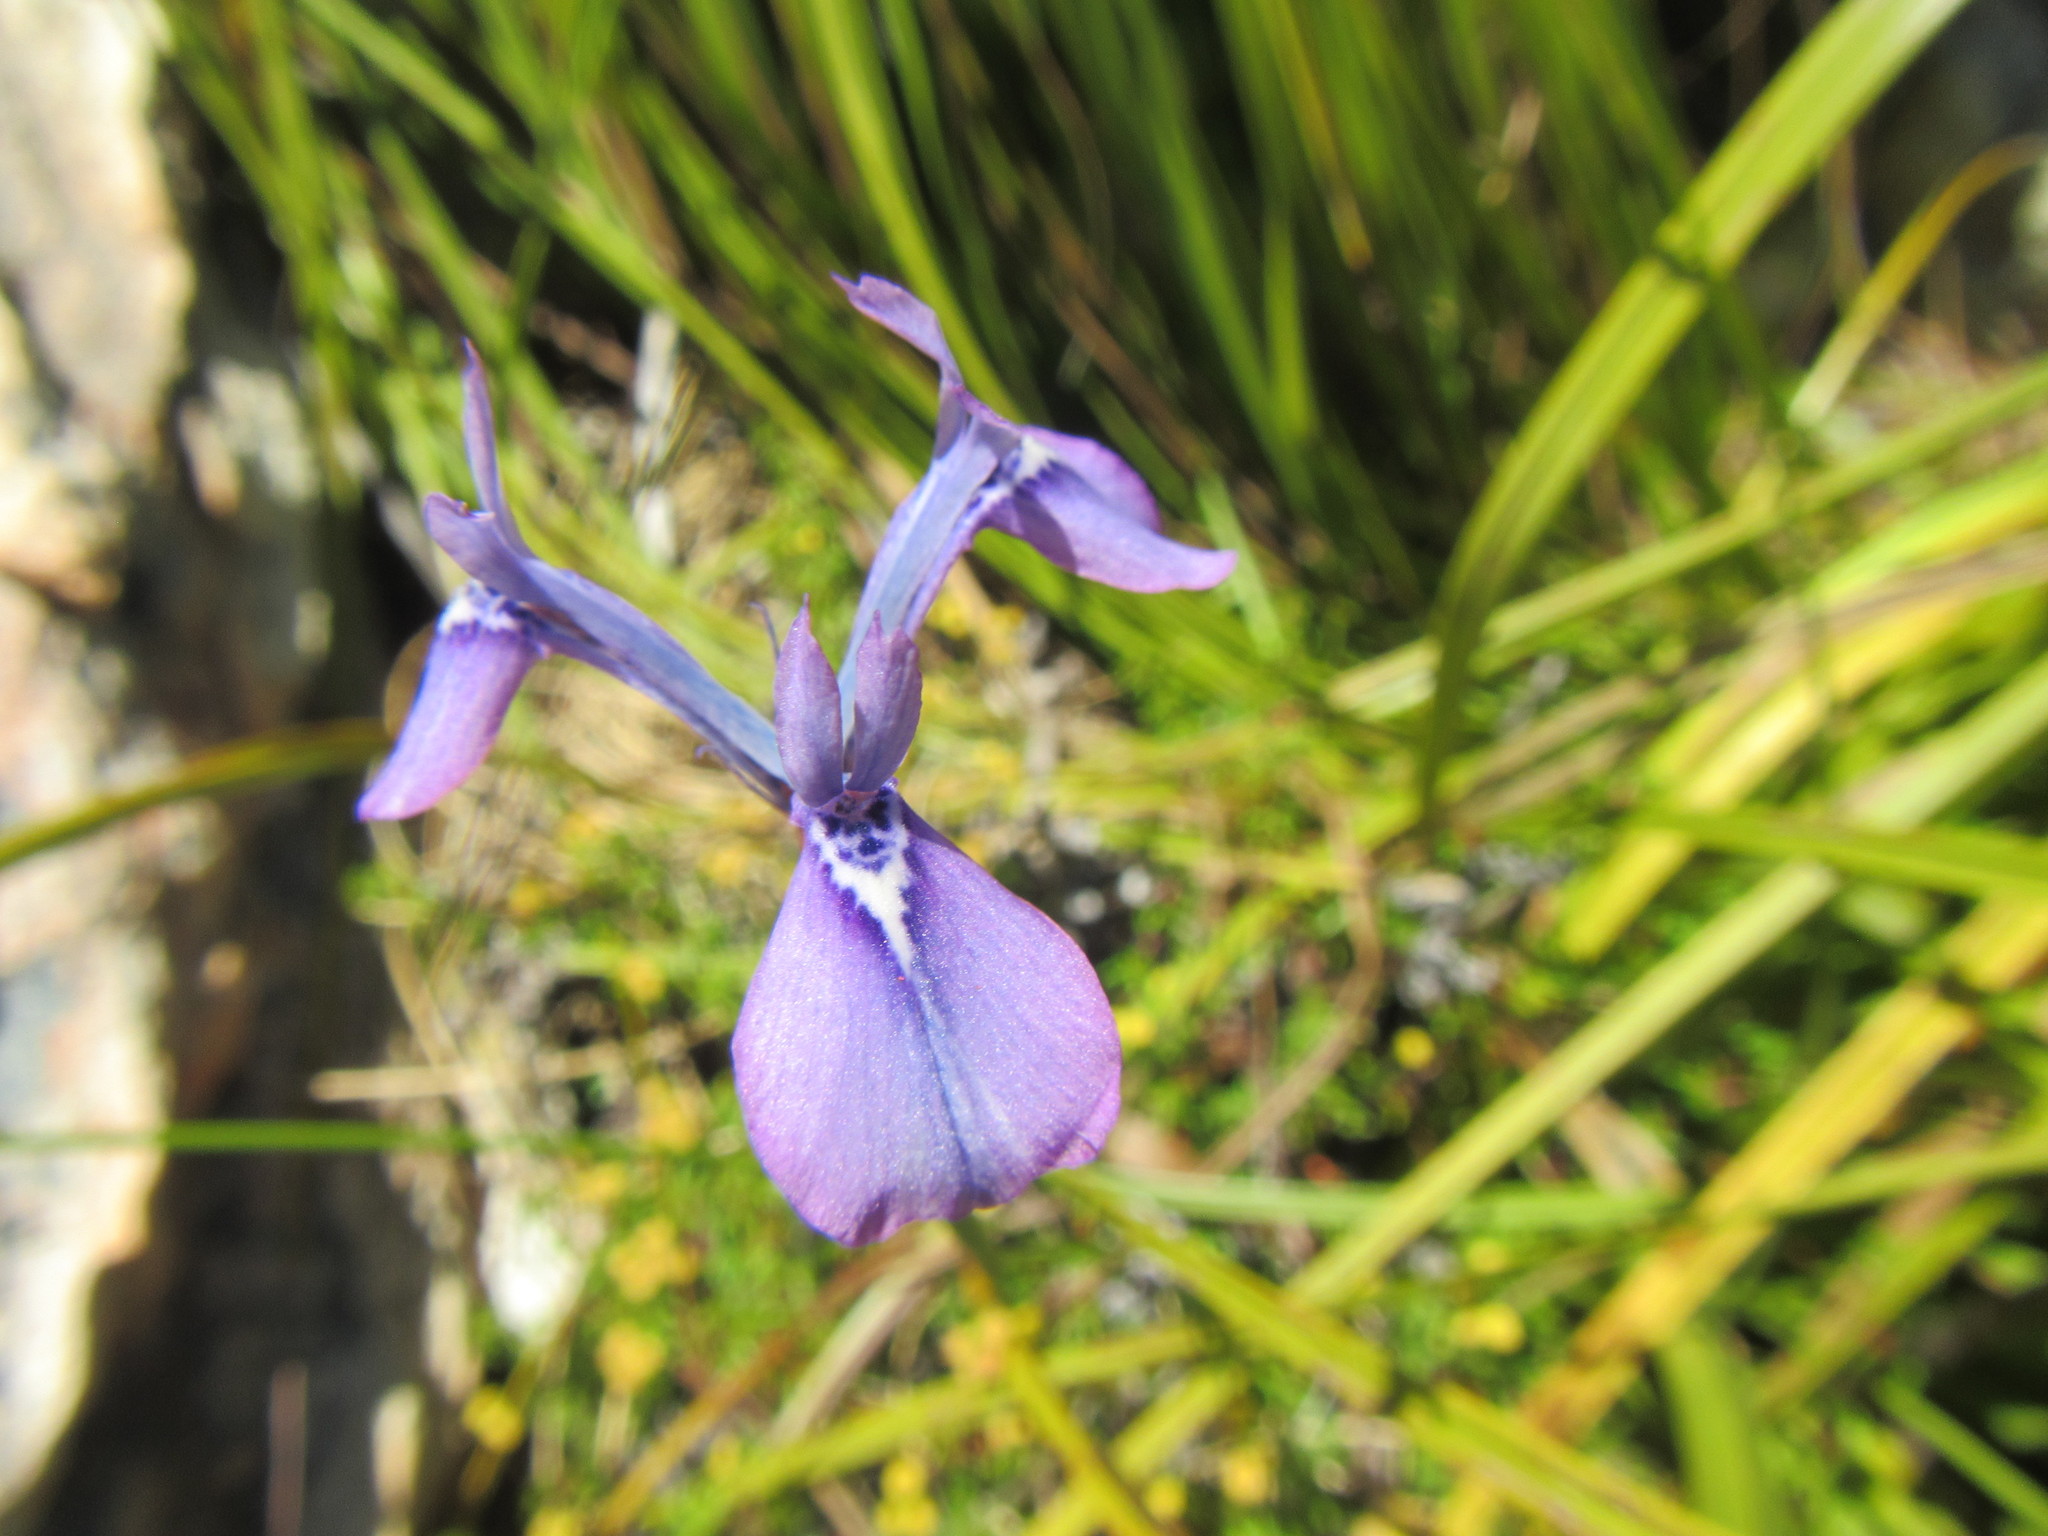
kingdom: Plantae
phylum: Tracheophyta
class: Liliopsida
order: Asparagales
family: Iridaceae
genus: Moraea
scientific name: Moraea tripetala
